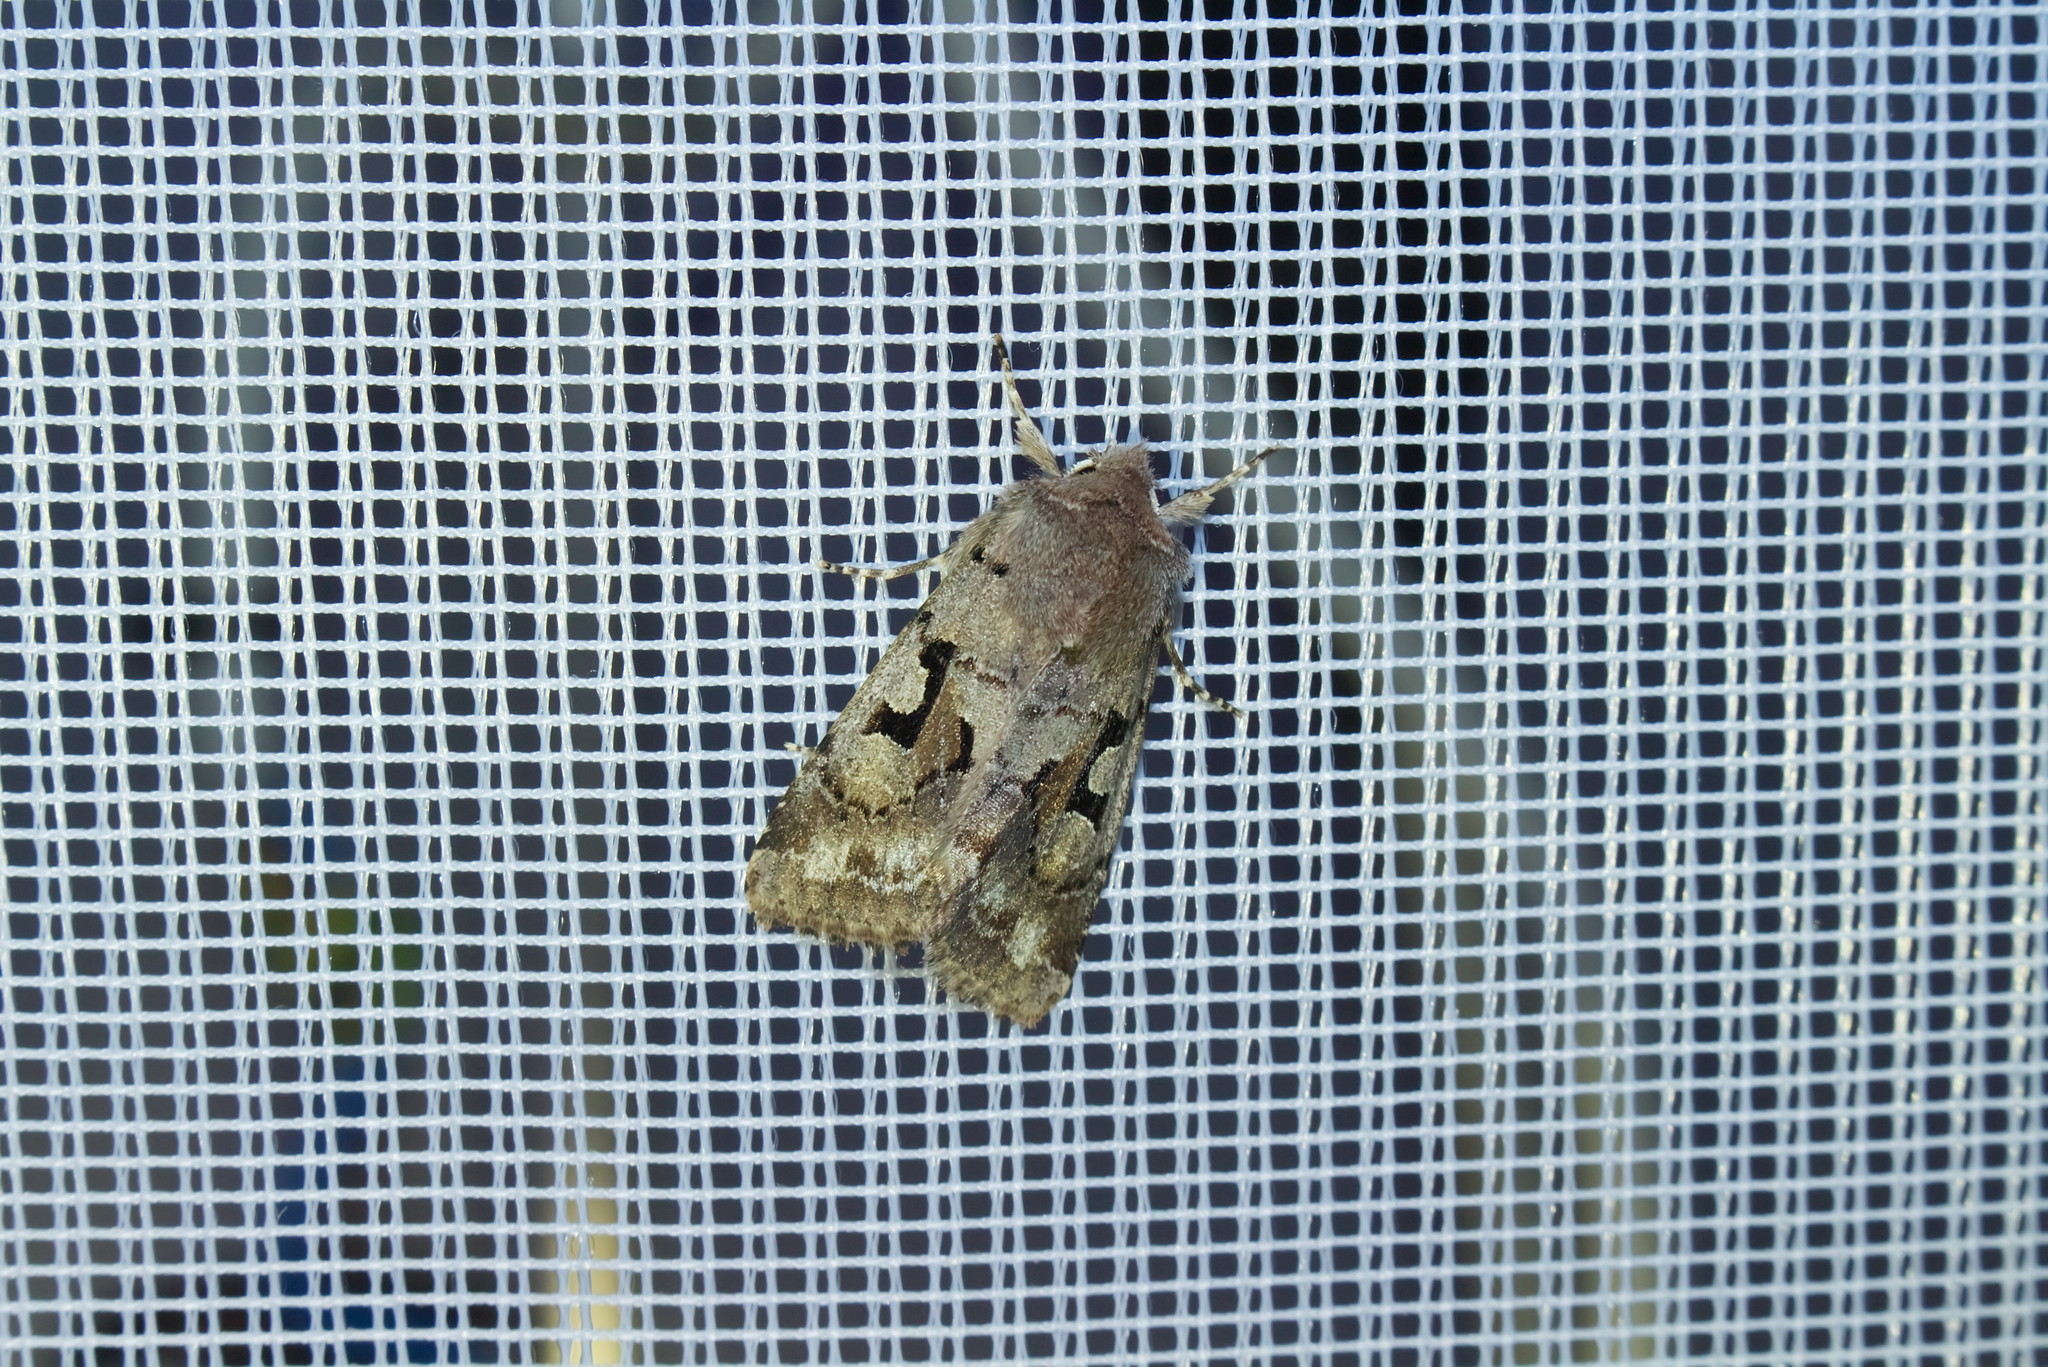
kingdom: Animalia
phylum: Arthropoda
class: Insecta
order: Lepidoptera
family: Noctuidae
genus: Orthosia
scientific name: Orthosia gothica
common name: Hebrew character
